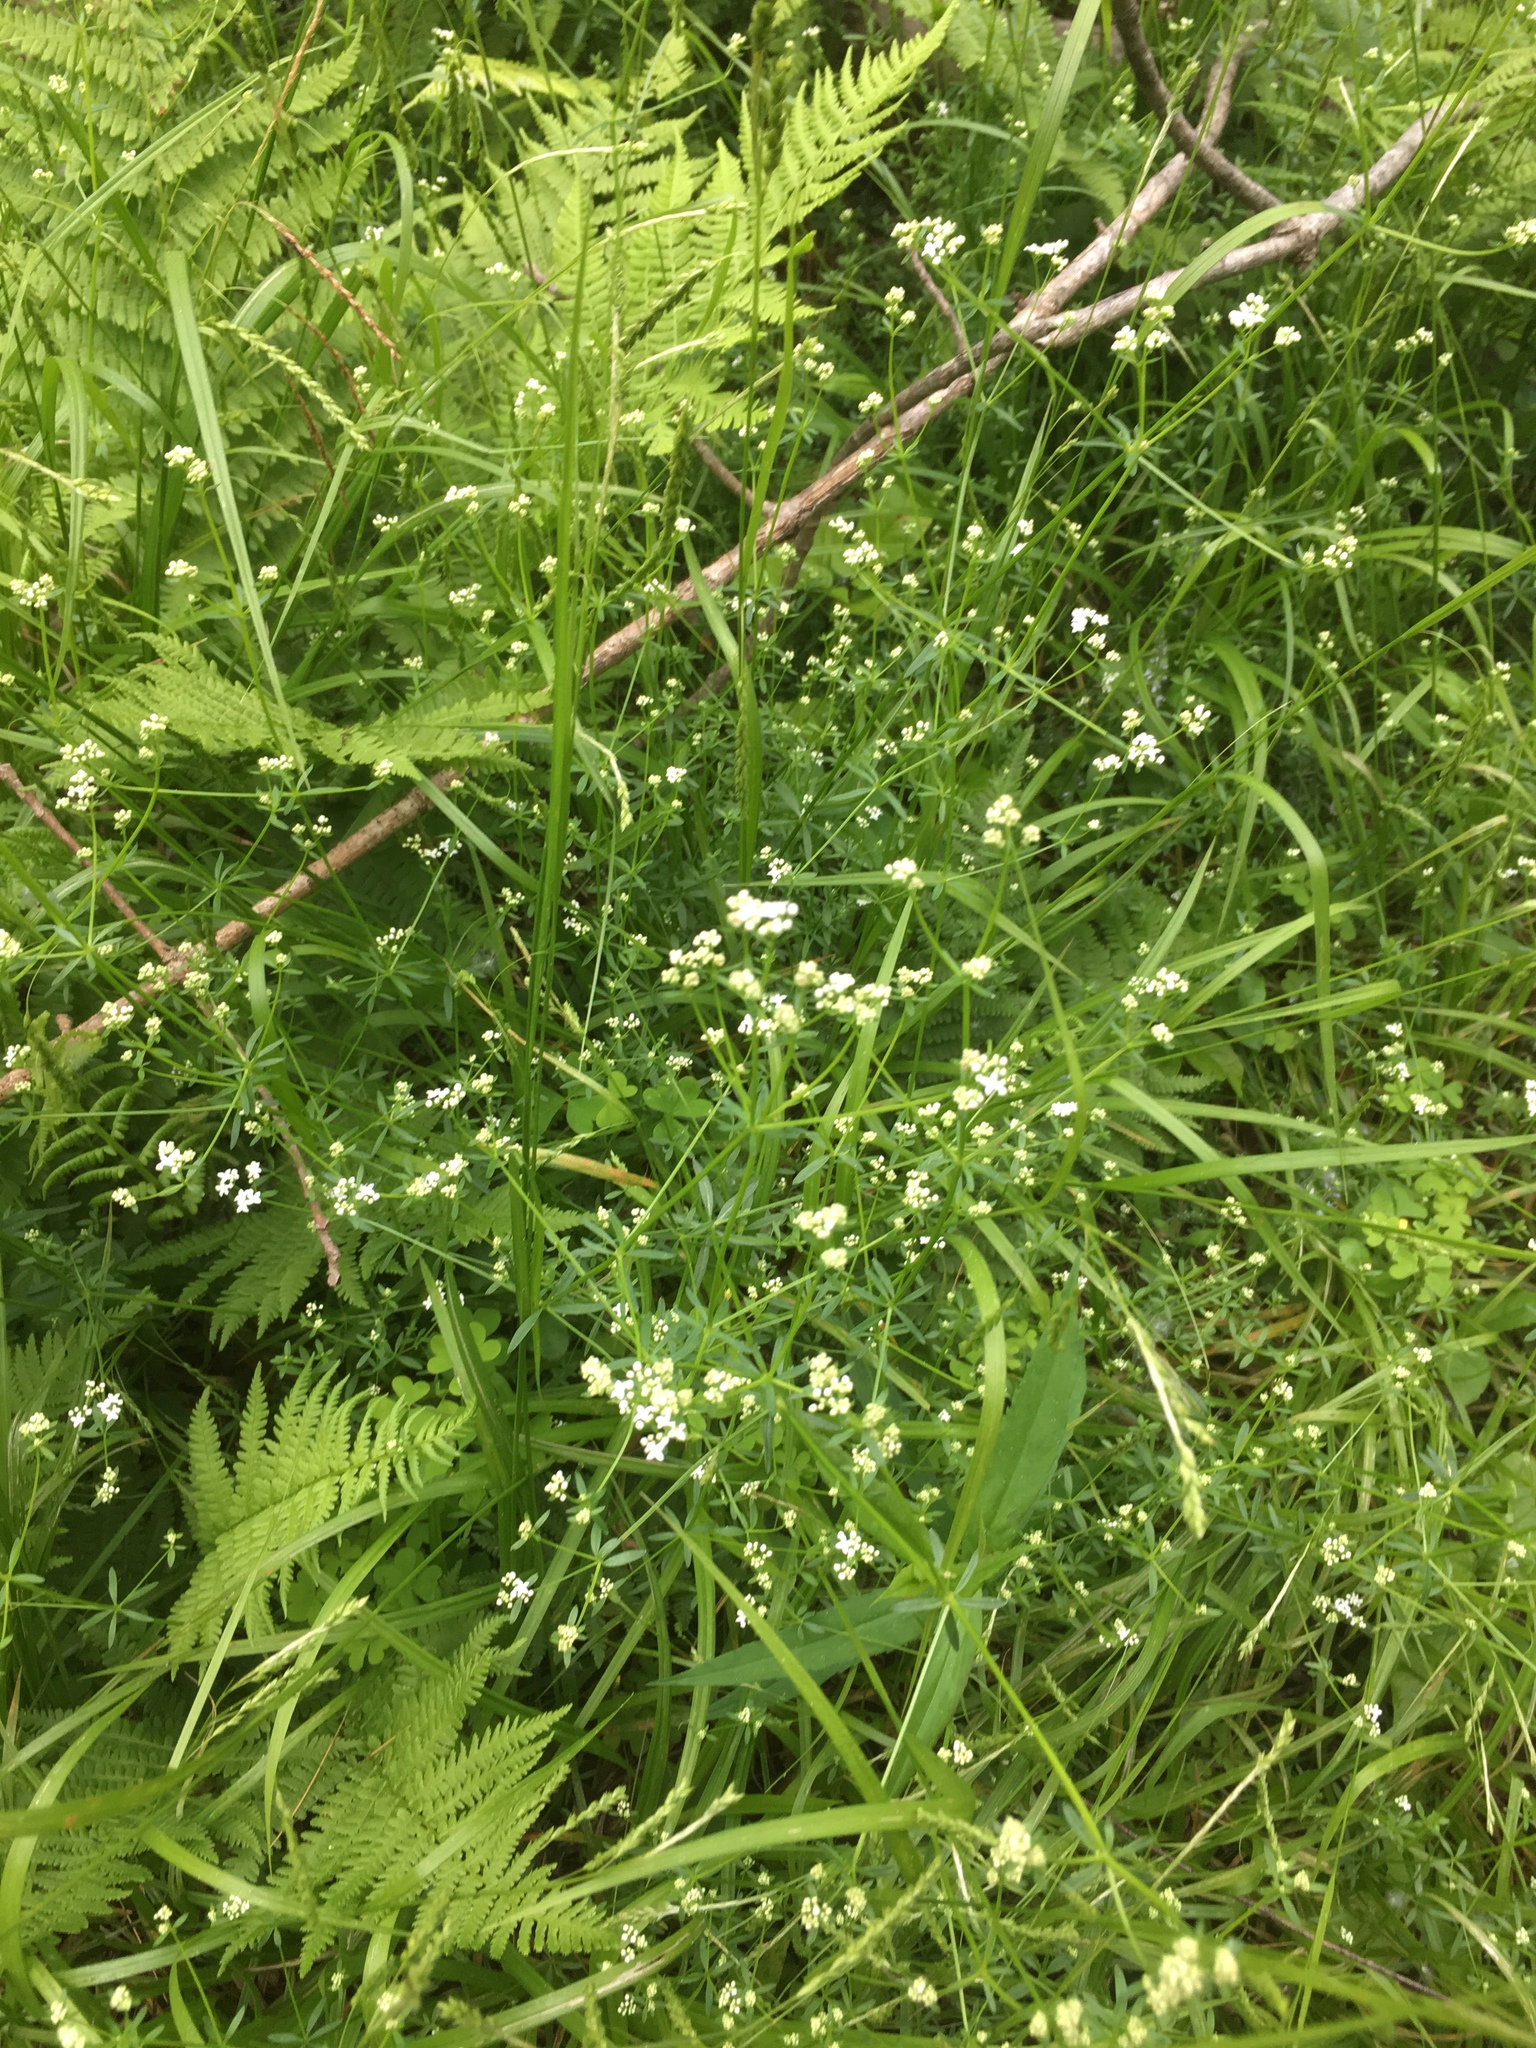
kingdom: Plantae
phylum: Tracheophyta
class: Magnoliopsida
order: Gentianales
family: Rubiaceae
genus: Galium
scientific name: Galium palustre
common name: Common marsh-bedstraw
